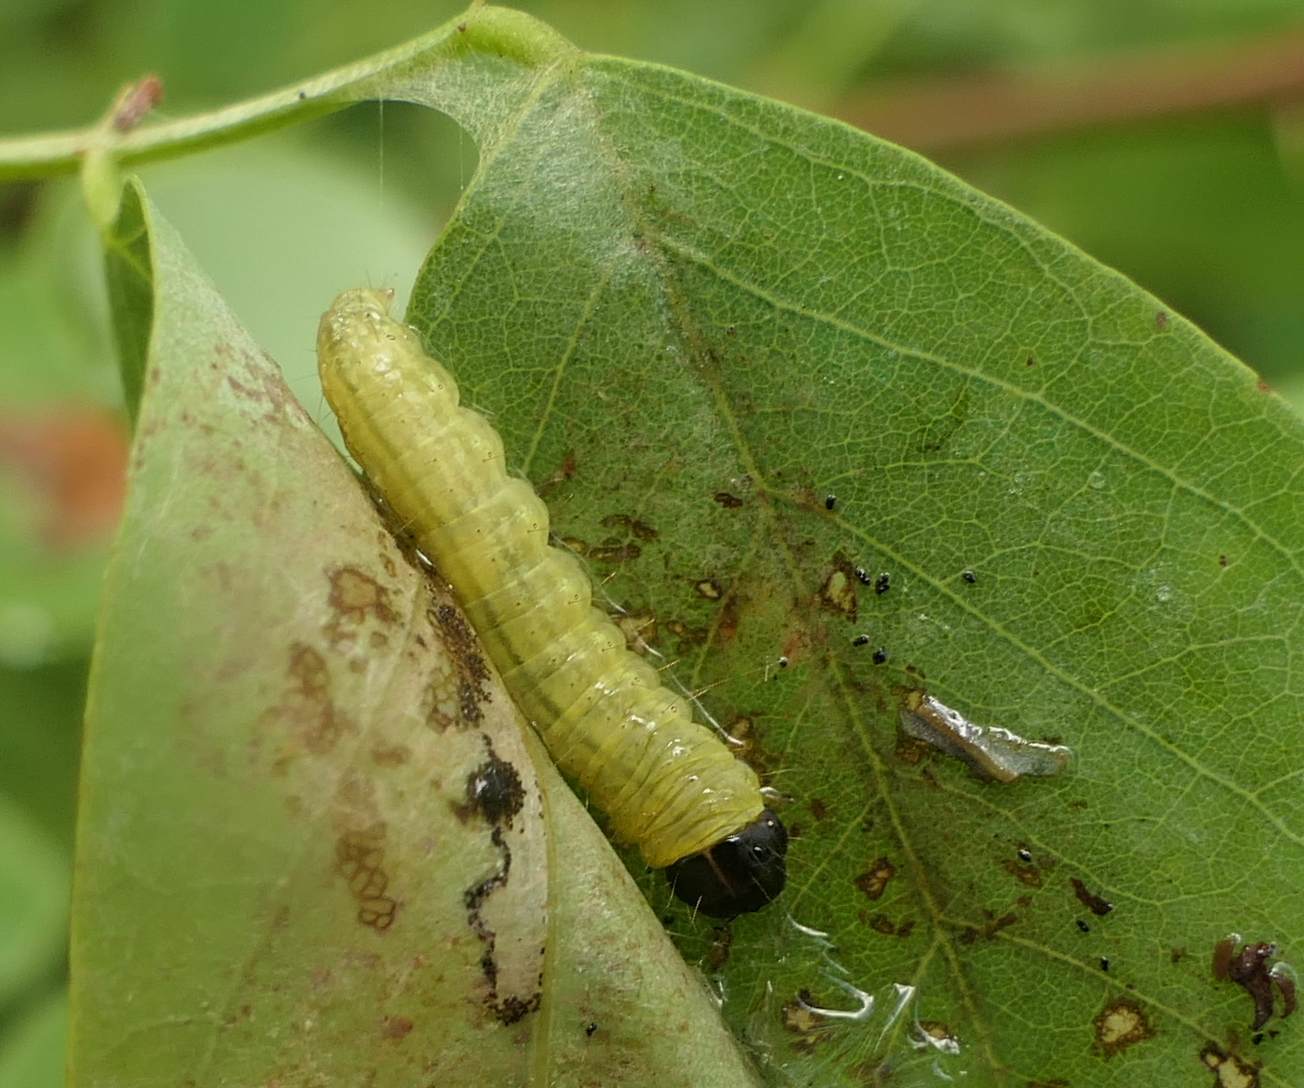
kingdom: Animalia
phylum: Arthropoda
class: Insecta
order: Lepidoptera
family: Hesperiidae
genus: Epargyreus
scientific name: Epargyreus clarus
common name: Silver-spotted skipper
